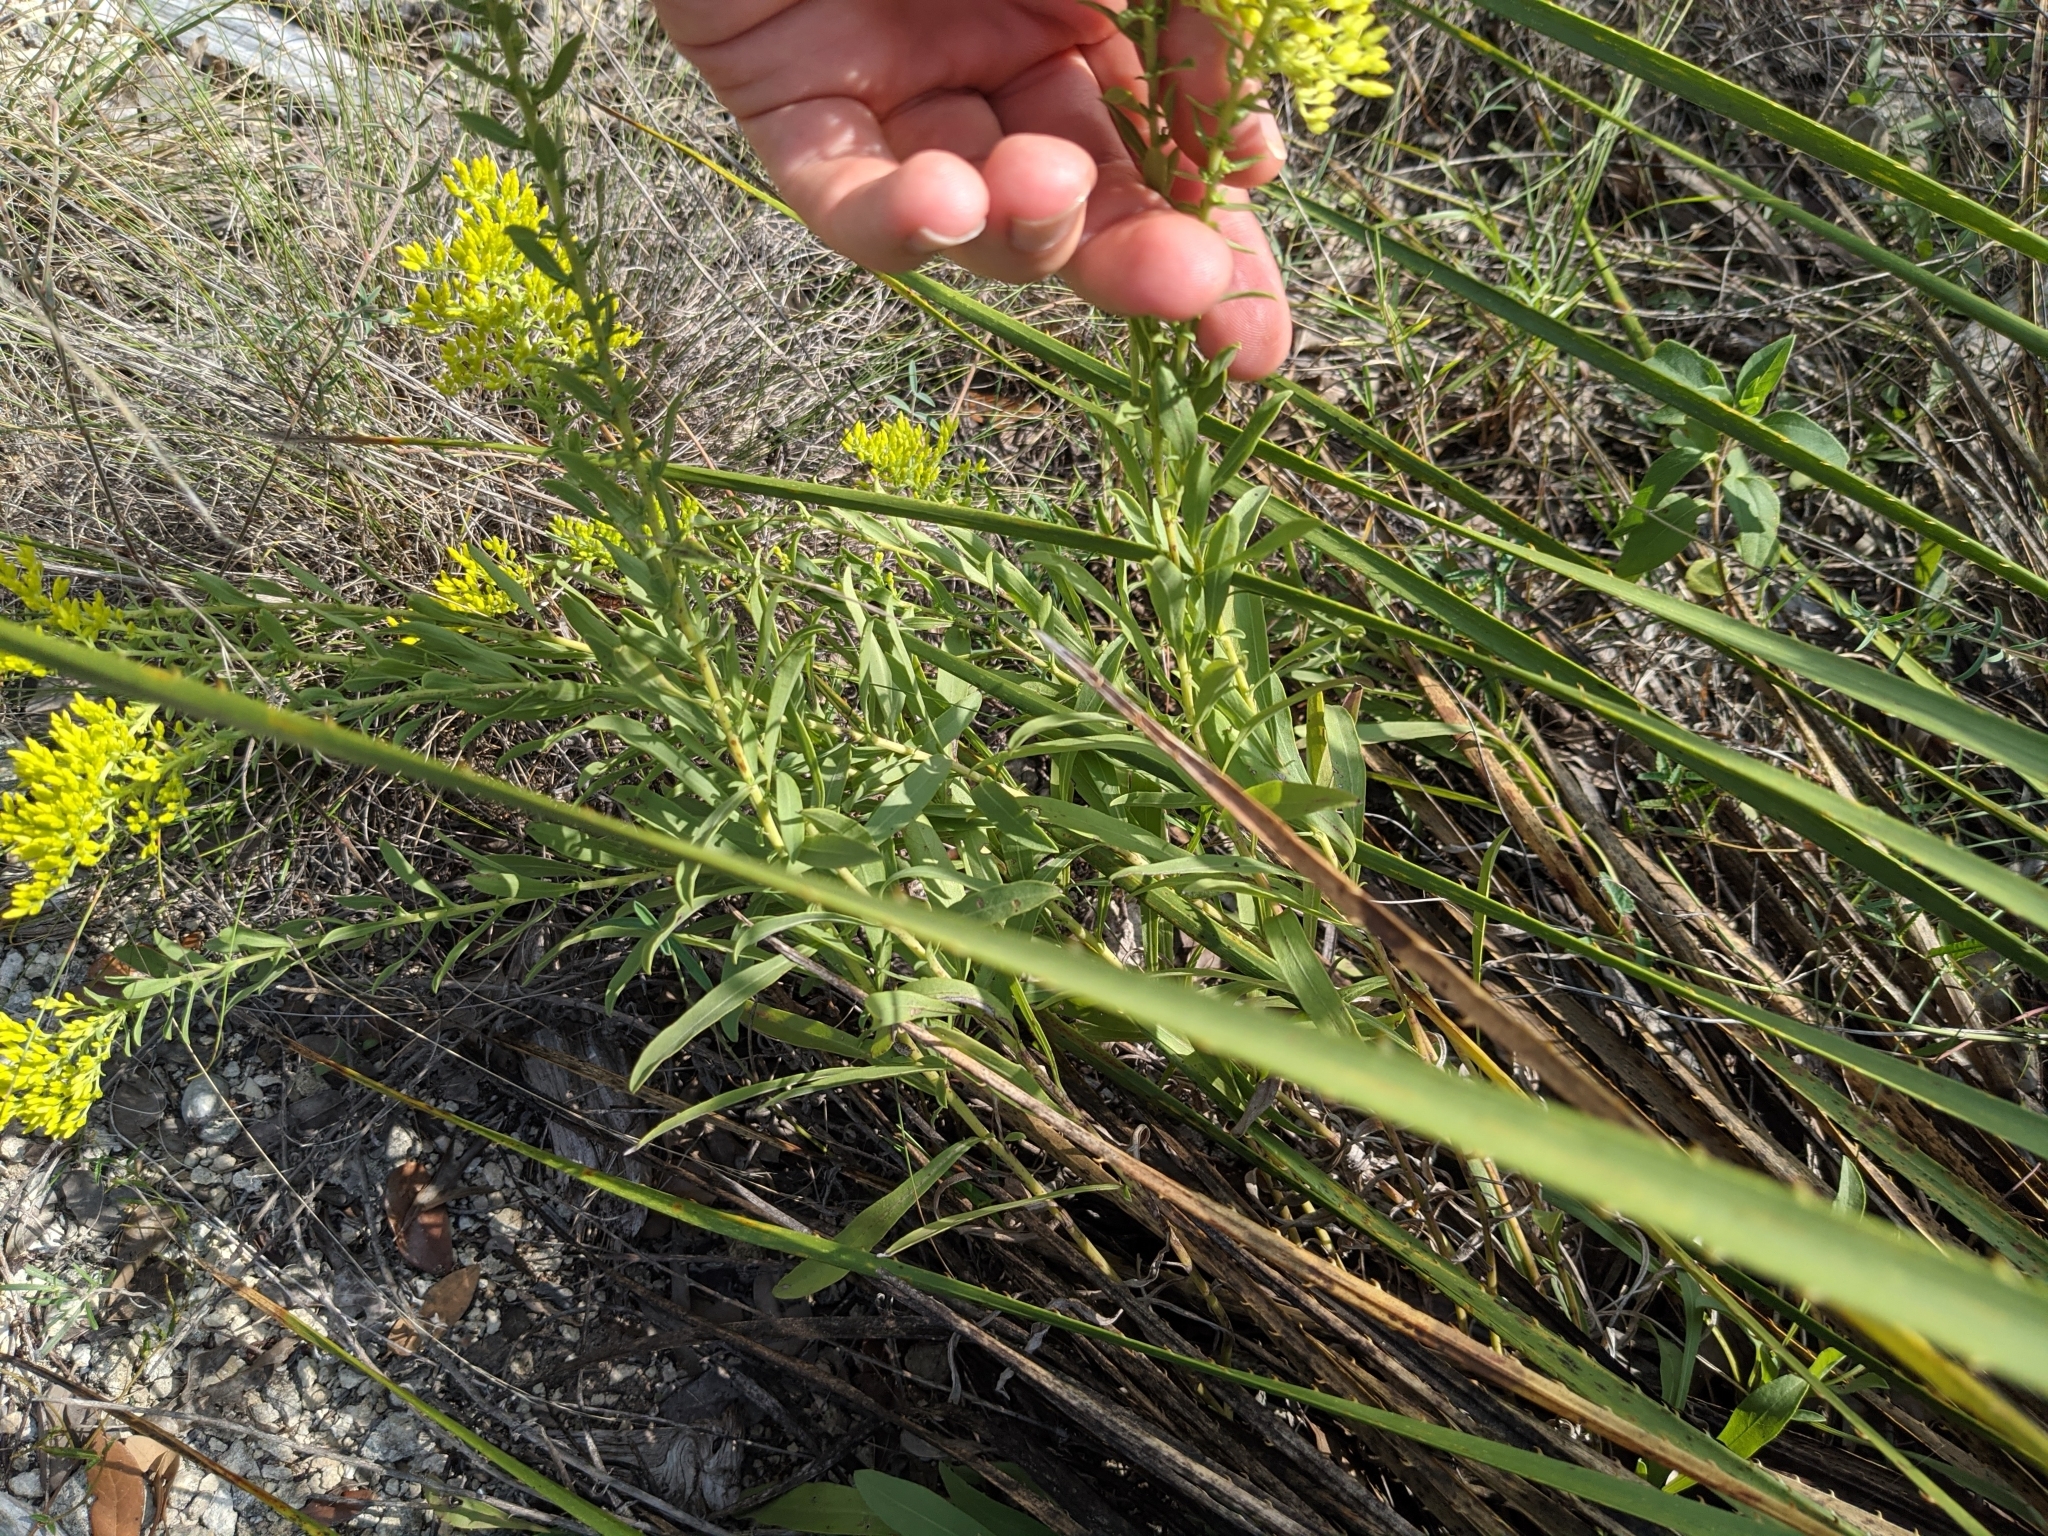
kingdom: Plantae
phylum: Tracheophyta
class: Magnoliopsida
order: Asterales
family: Asteraceae
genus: Solidago
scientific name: Solidago nemoralis
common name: Grey goldenrod
